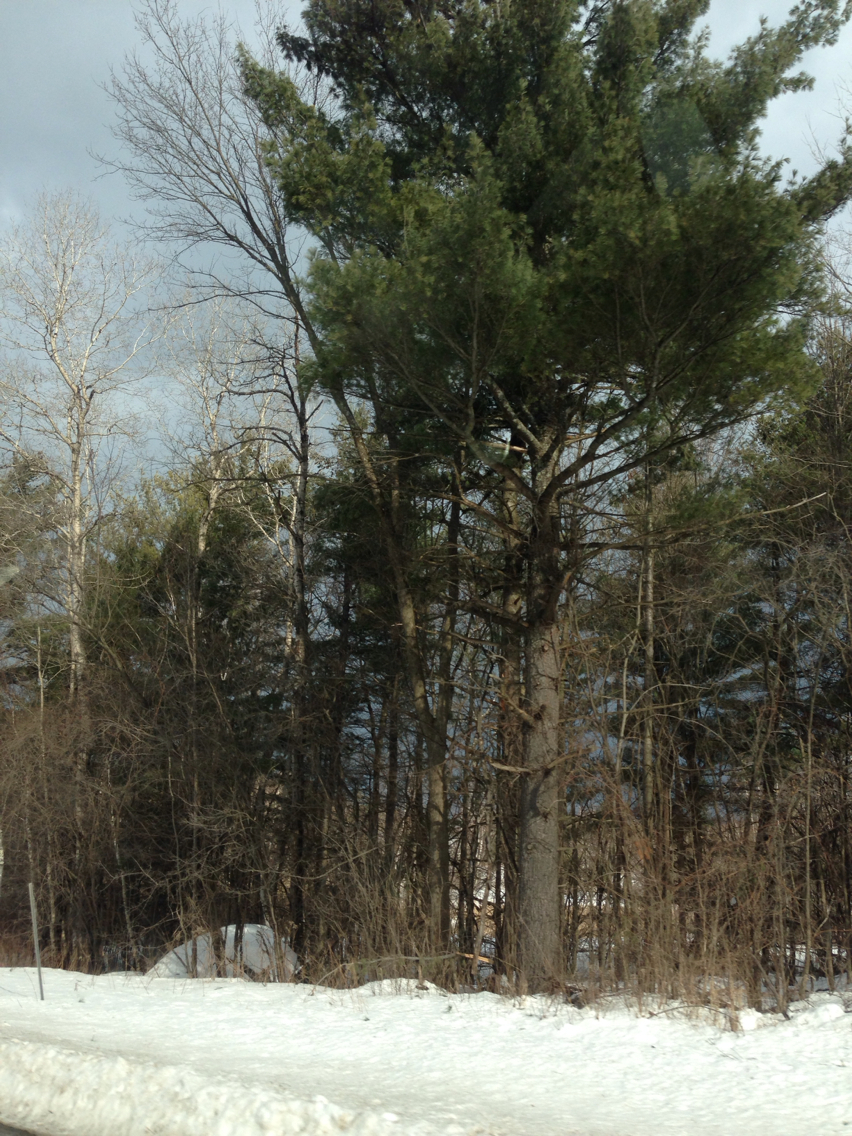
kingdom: Plantae
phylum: Tracheophyta
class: Pinopsida
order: Pinales
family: Pinaceae
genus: Pinus
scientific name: Pinus strobus
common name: Weymouth pine
